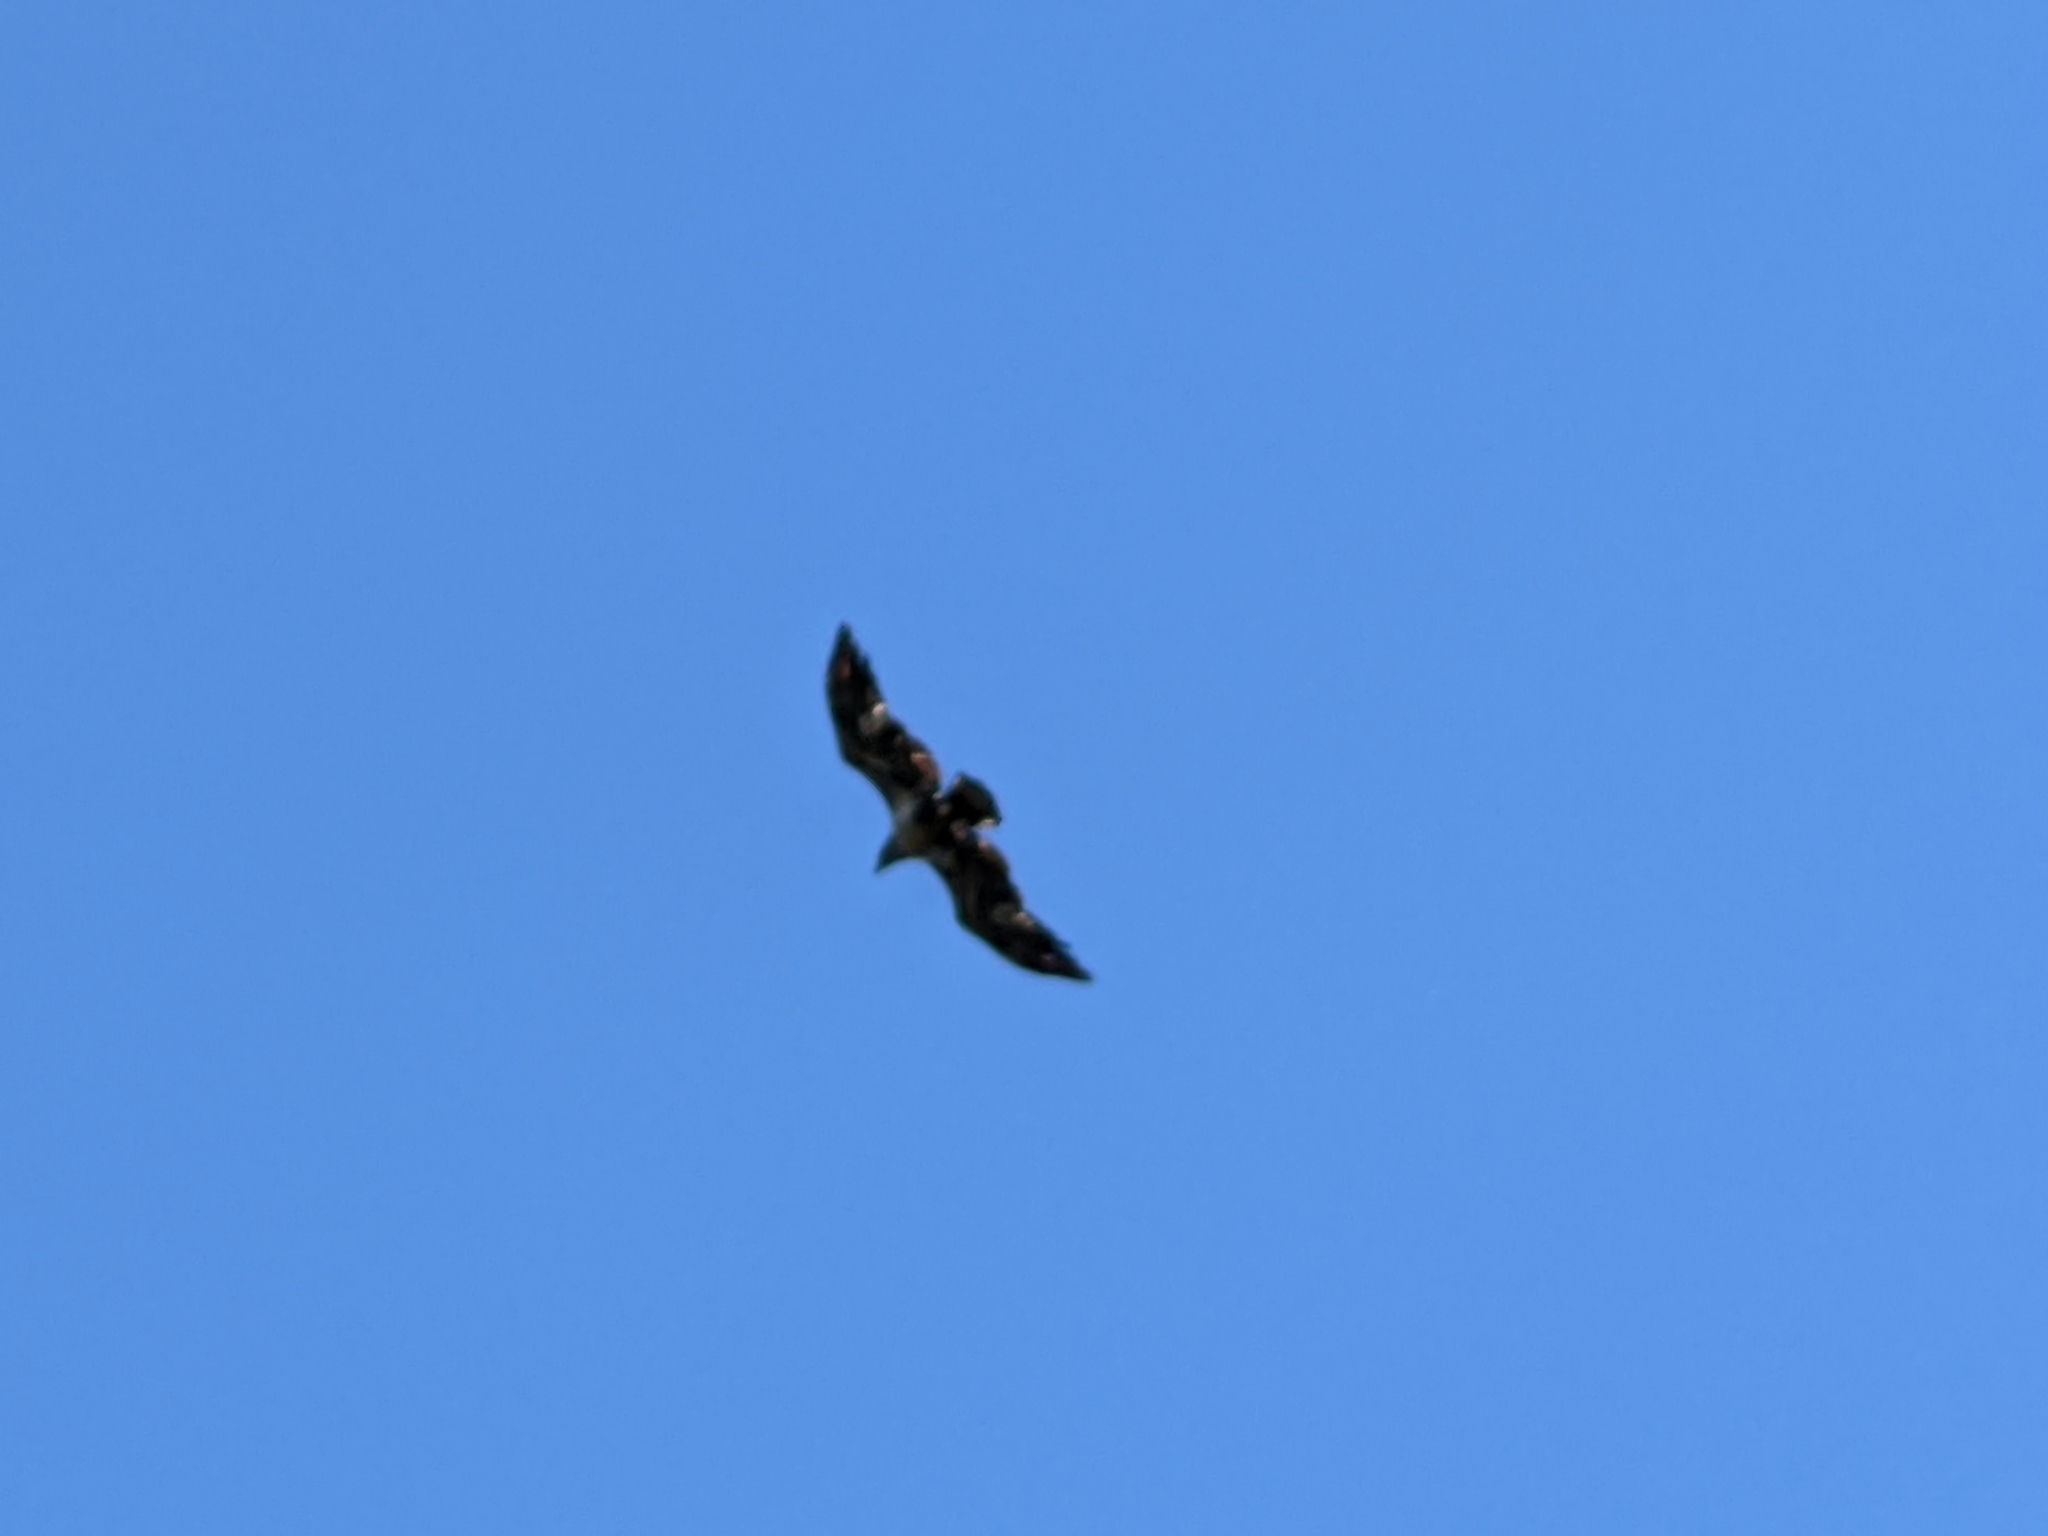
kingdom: Animalia
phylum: Chordata
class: Aves
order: Accipitriformes
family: Accipitridae
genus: Haliaeetus
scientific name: Haliaeetus leucocephalus
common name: Bald eagle
